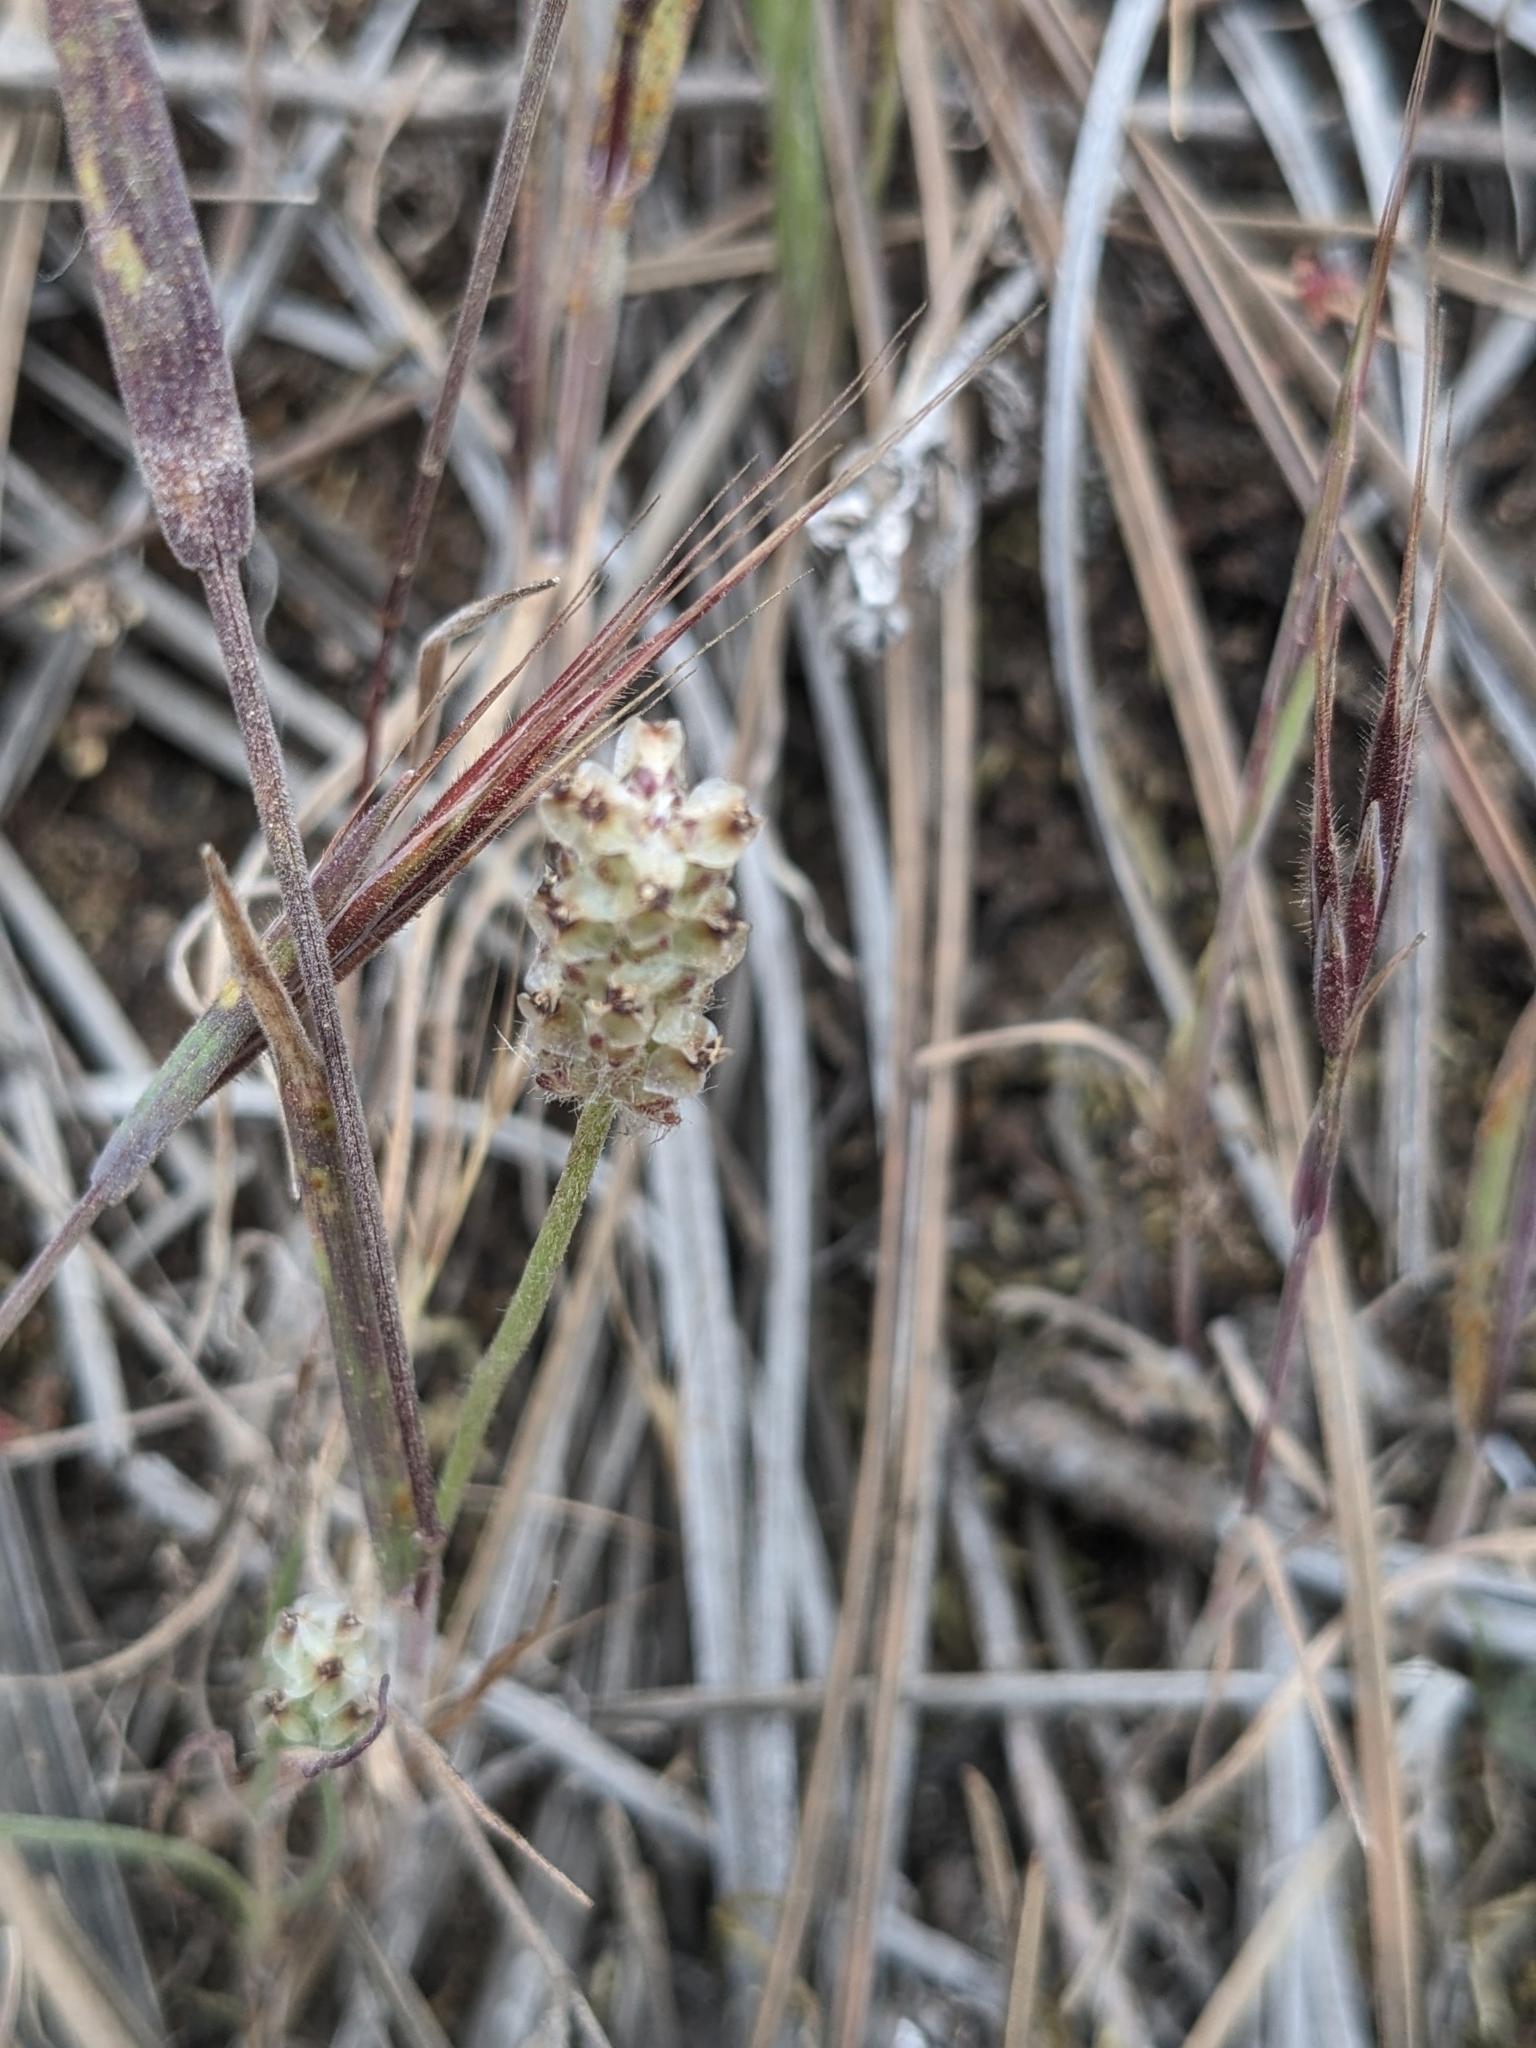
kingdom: Plantae
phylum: Tracheophyta
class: Magnoliopsida
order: Lamiales
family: Plantaginaceae
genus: Plantago
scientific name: Plantago erecta
